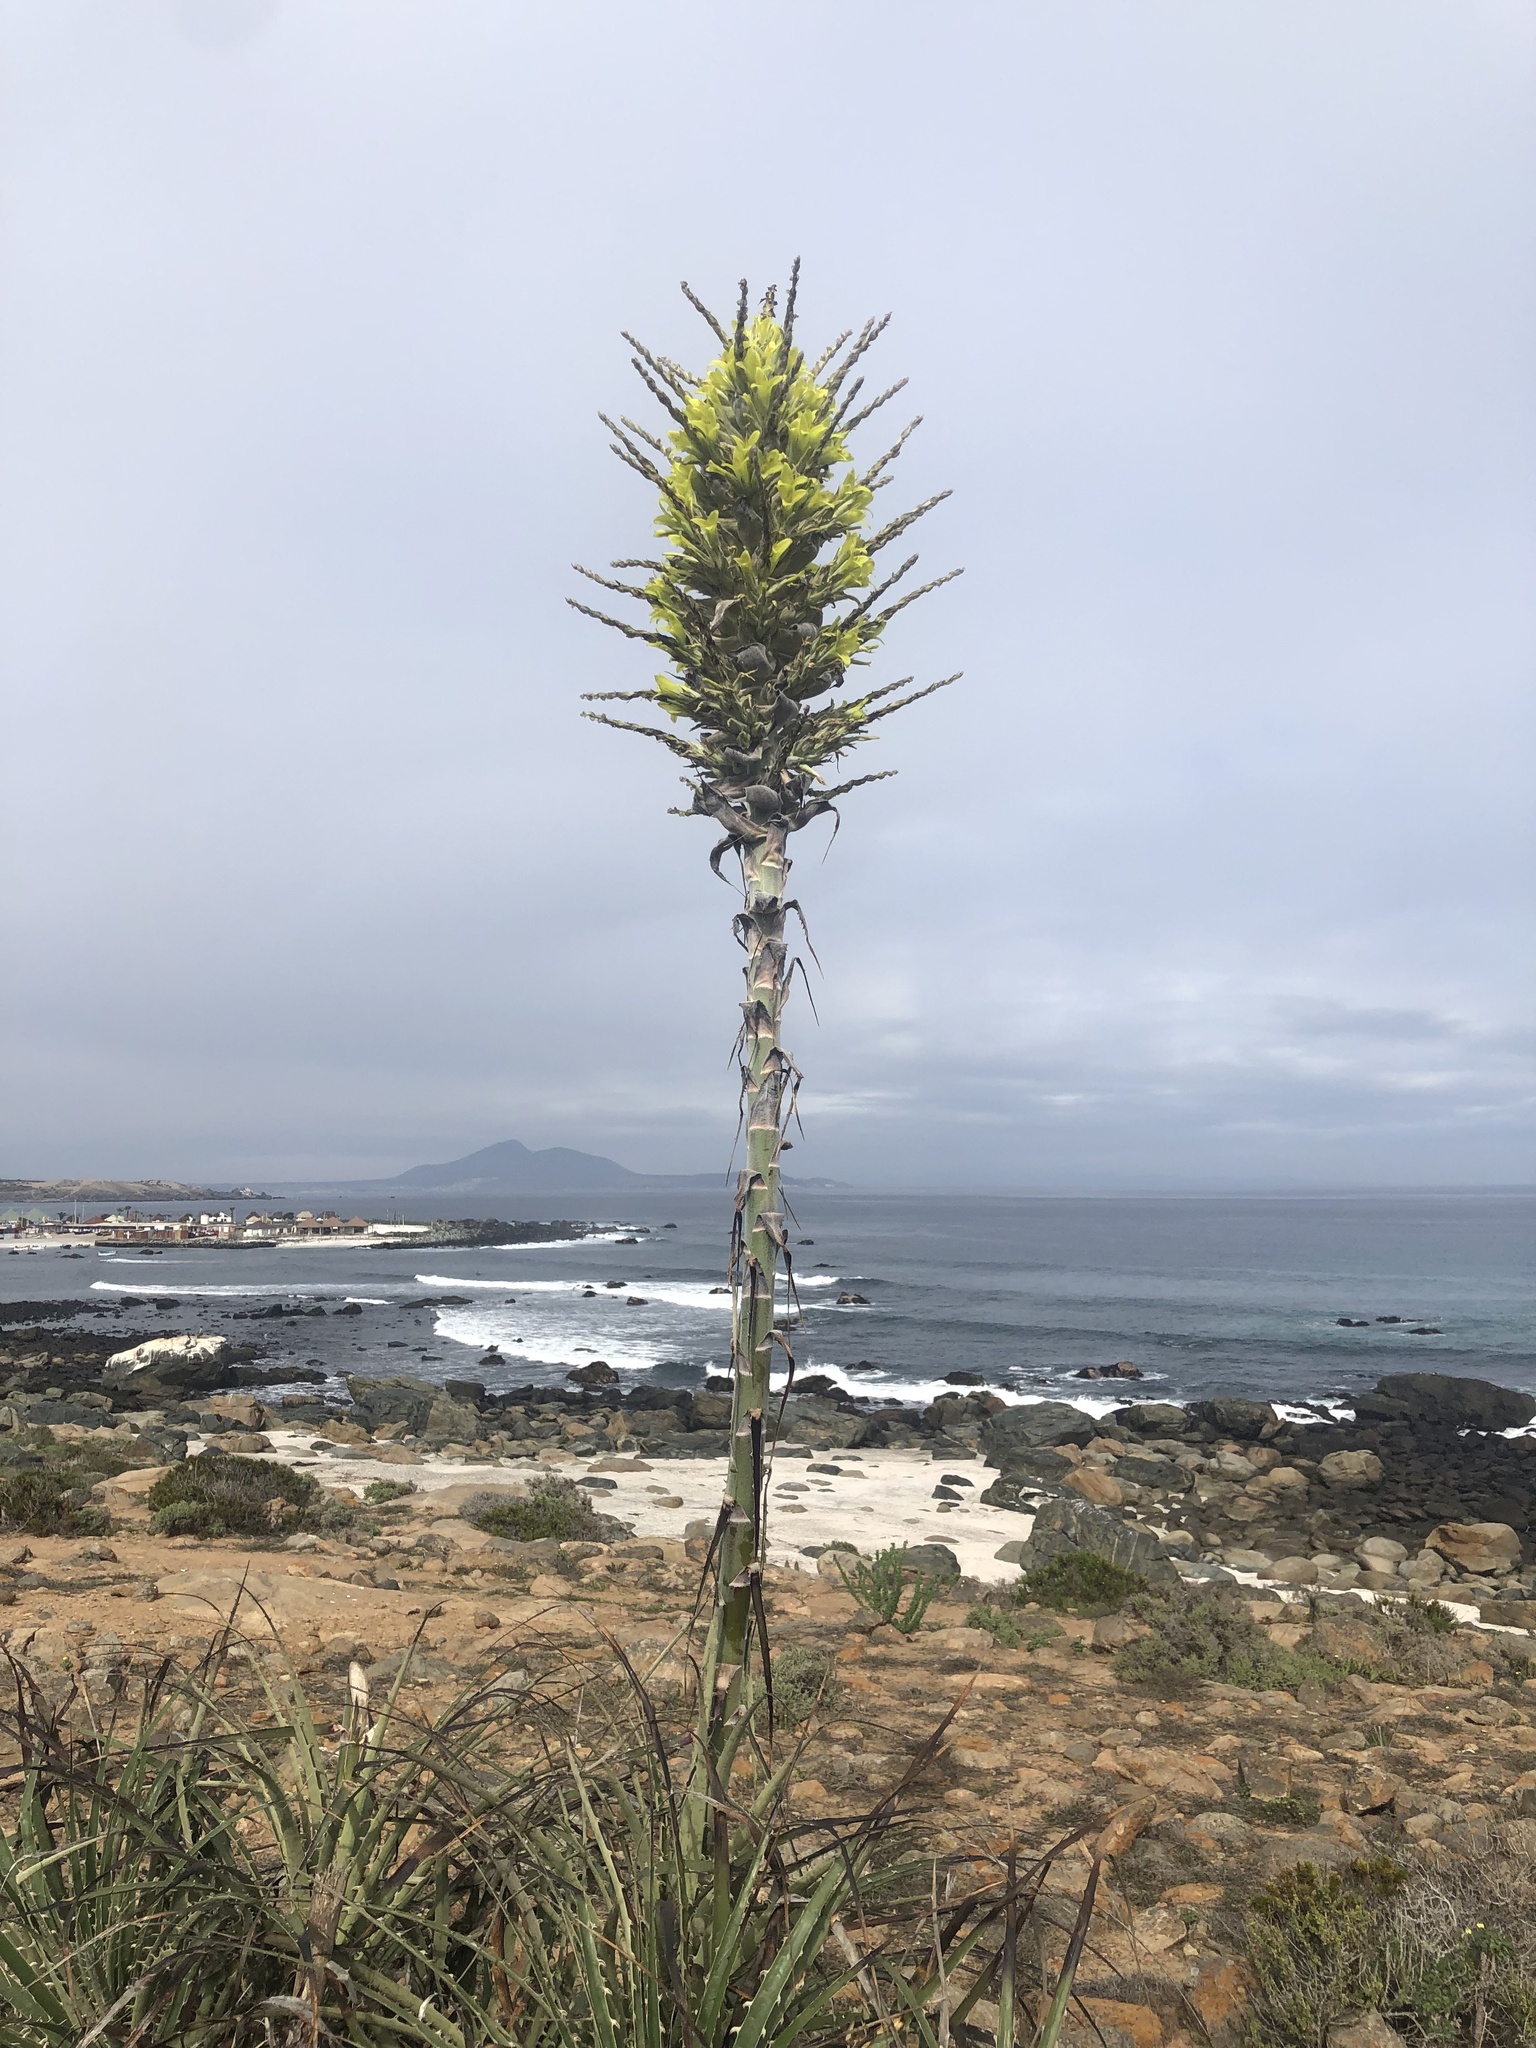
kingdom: Plantae
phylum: Tracheophyta
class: Liliopsida
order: Poales
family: Bromeliaceae
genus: Puya
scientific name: Puya chilensis
